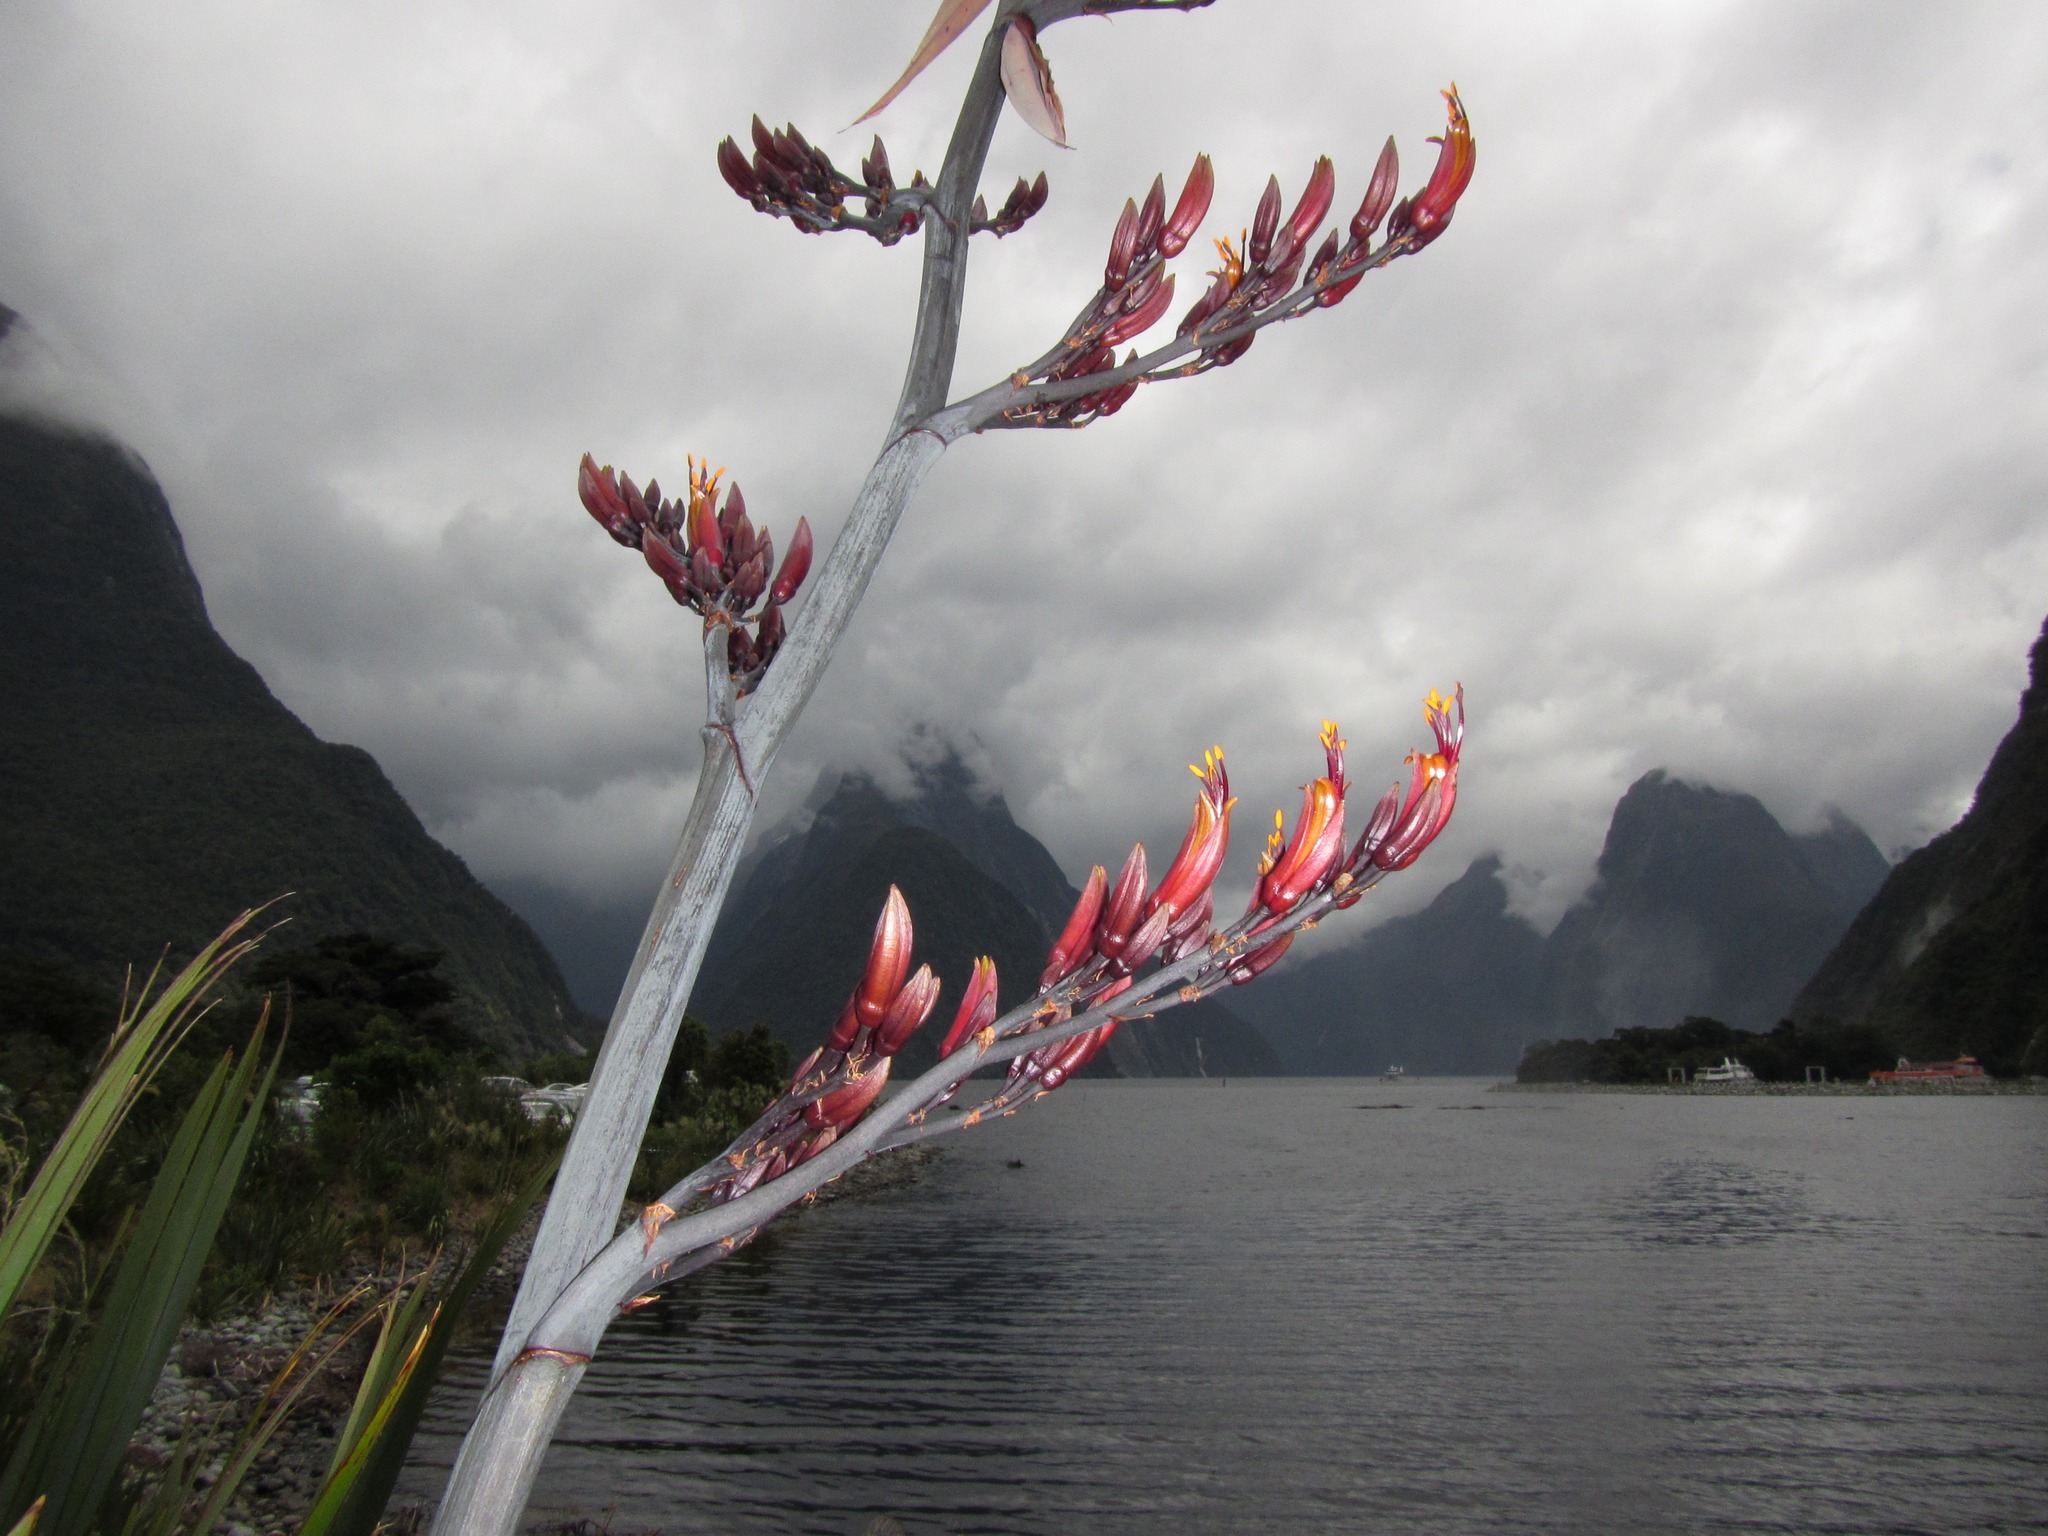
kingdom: Plantae
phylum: Tracheophyta
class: Liliopsida
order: Asparagales
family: Asphodelaceae
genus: Phormium
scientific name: Phormium tenax
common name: New zealand flax
